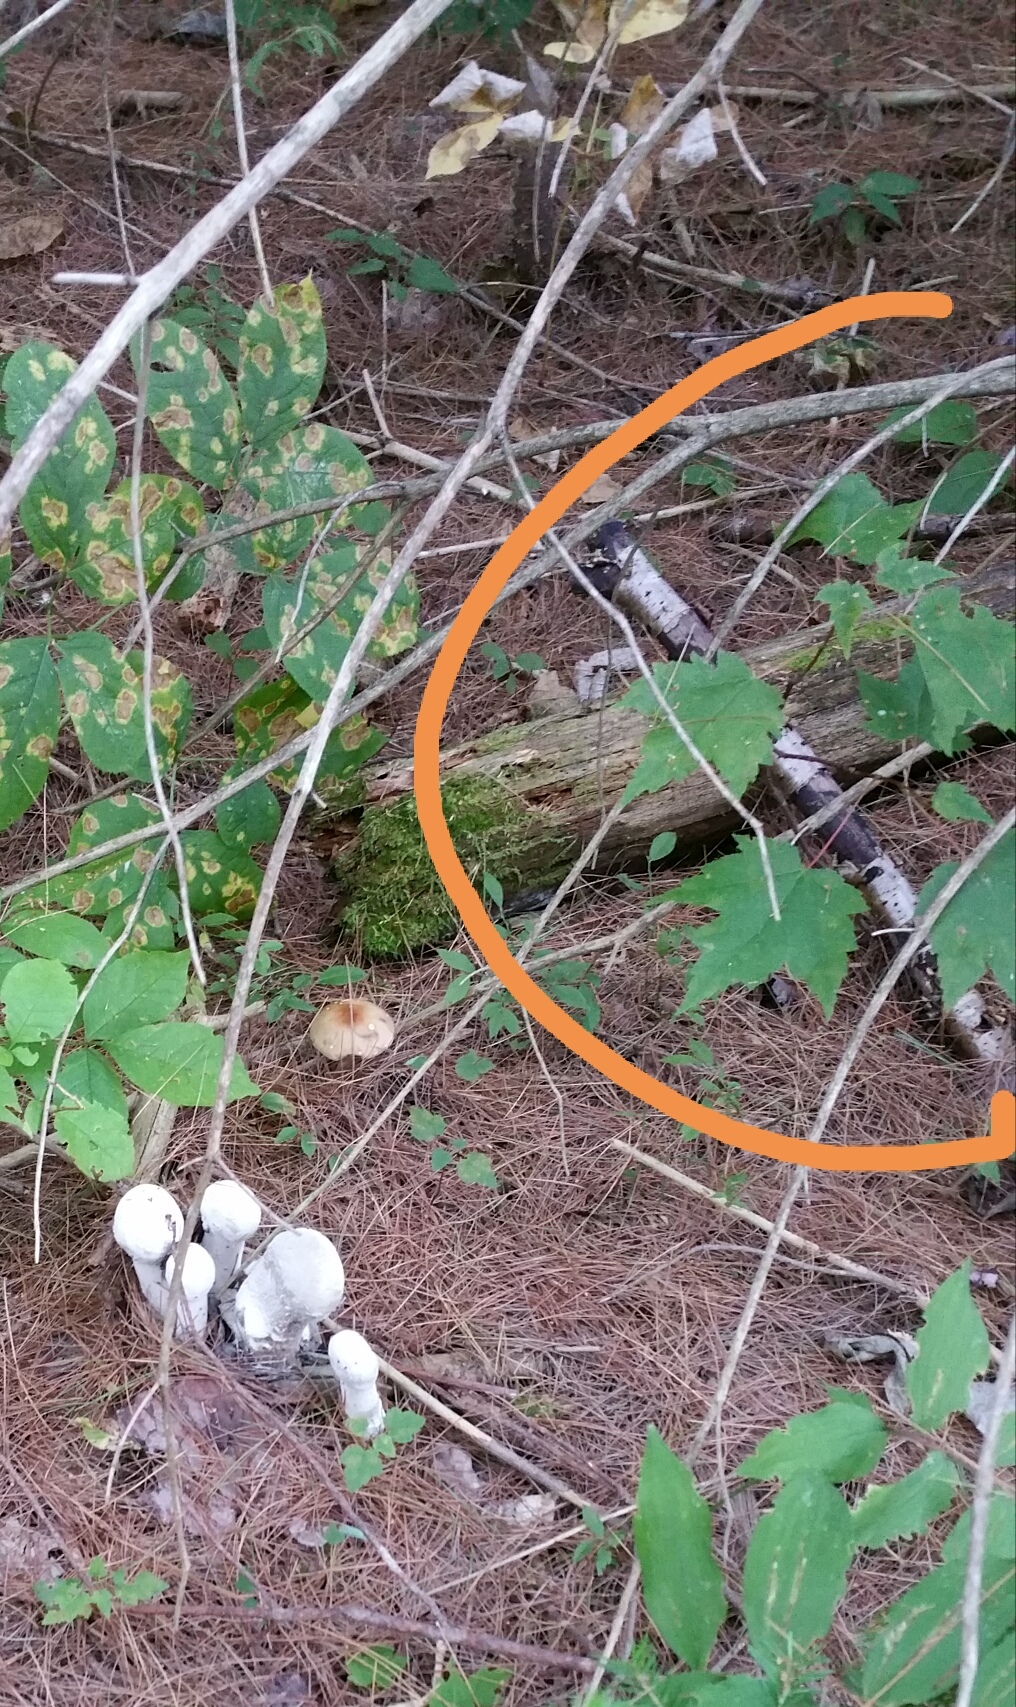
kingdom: Plantae
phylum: Tracheophyta
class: Magnoliopsida
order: Sapindales
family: Sapindaceae
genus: Acer
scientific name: Acer rubrum
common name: Red maple
